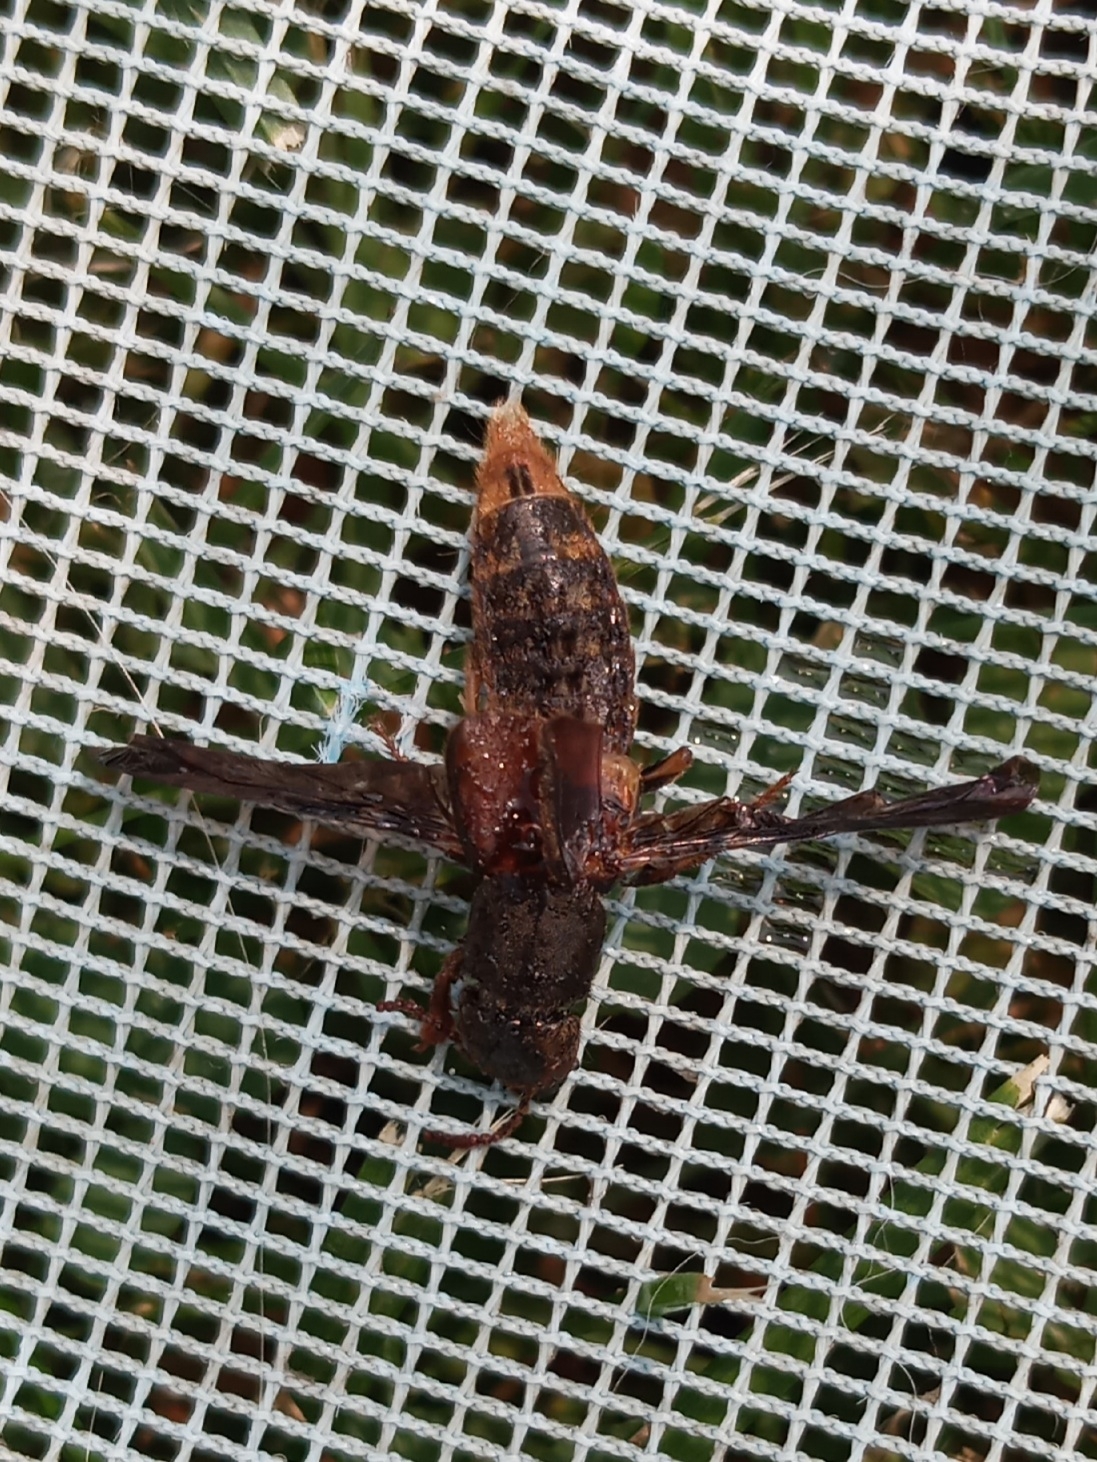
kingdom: Animalia
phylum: Arthropoda
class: Insecta
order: Coleoptera
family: Staphylinidae
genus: Platydracus
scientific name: Platydracus maculosus
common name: Brown rove beetle
